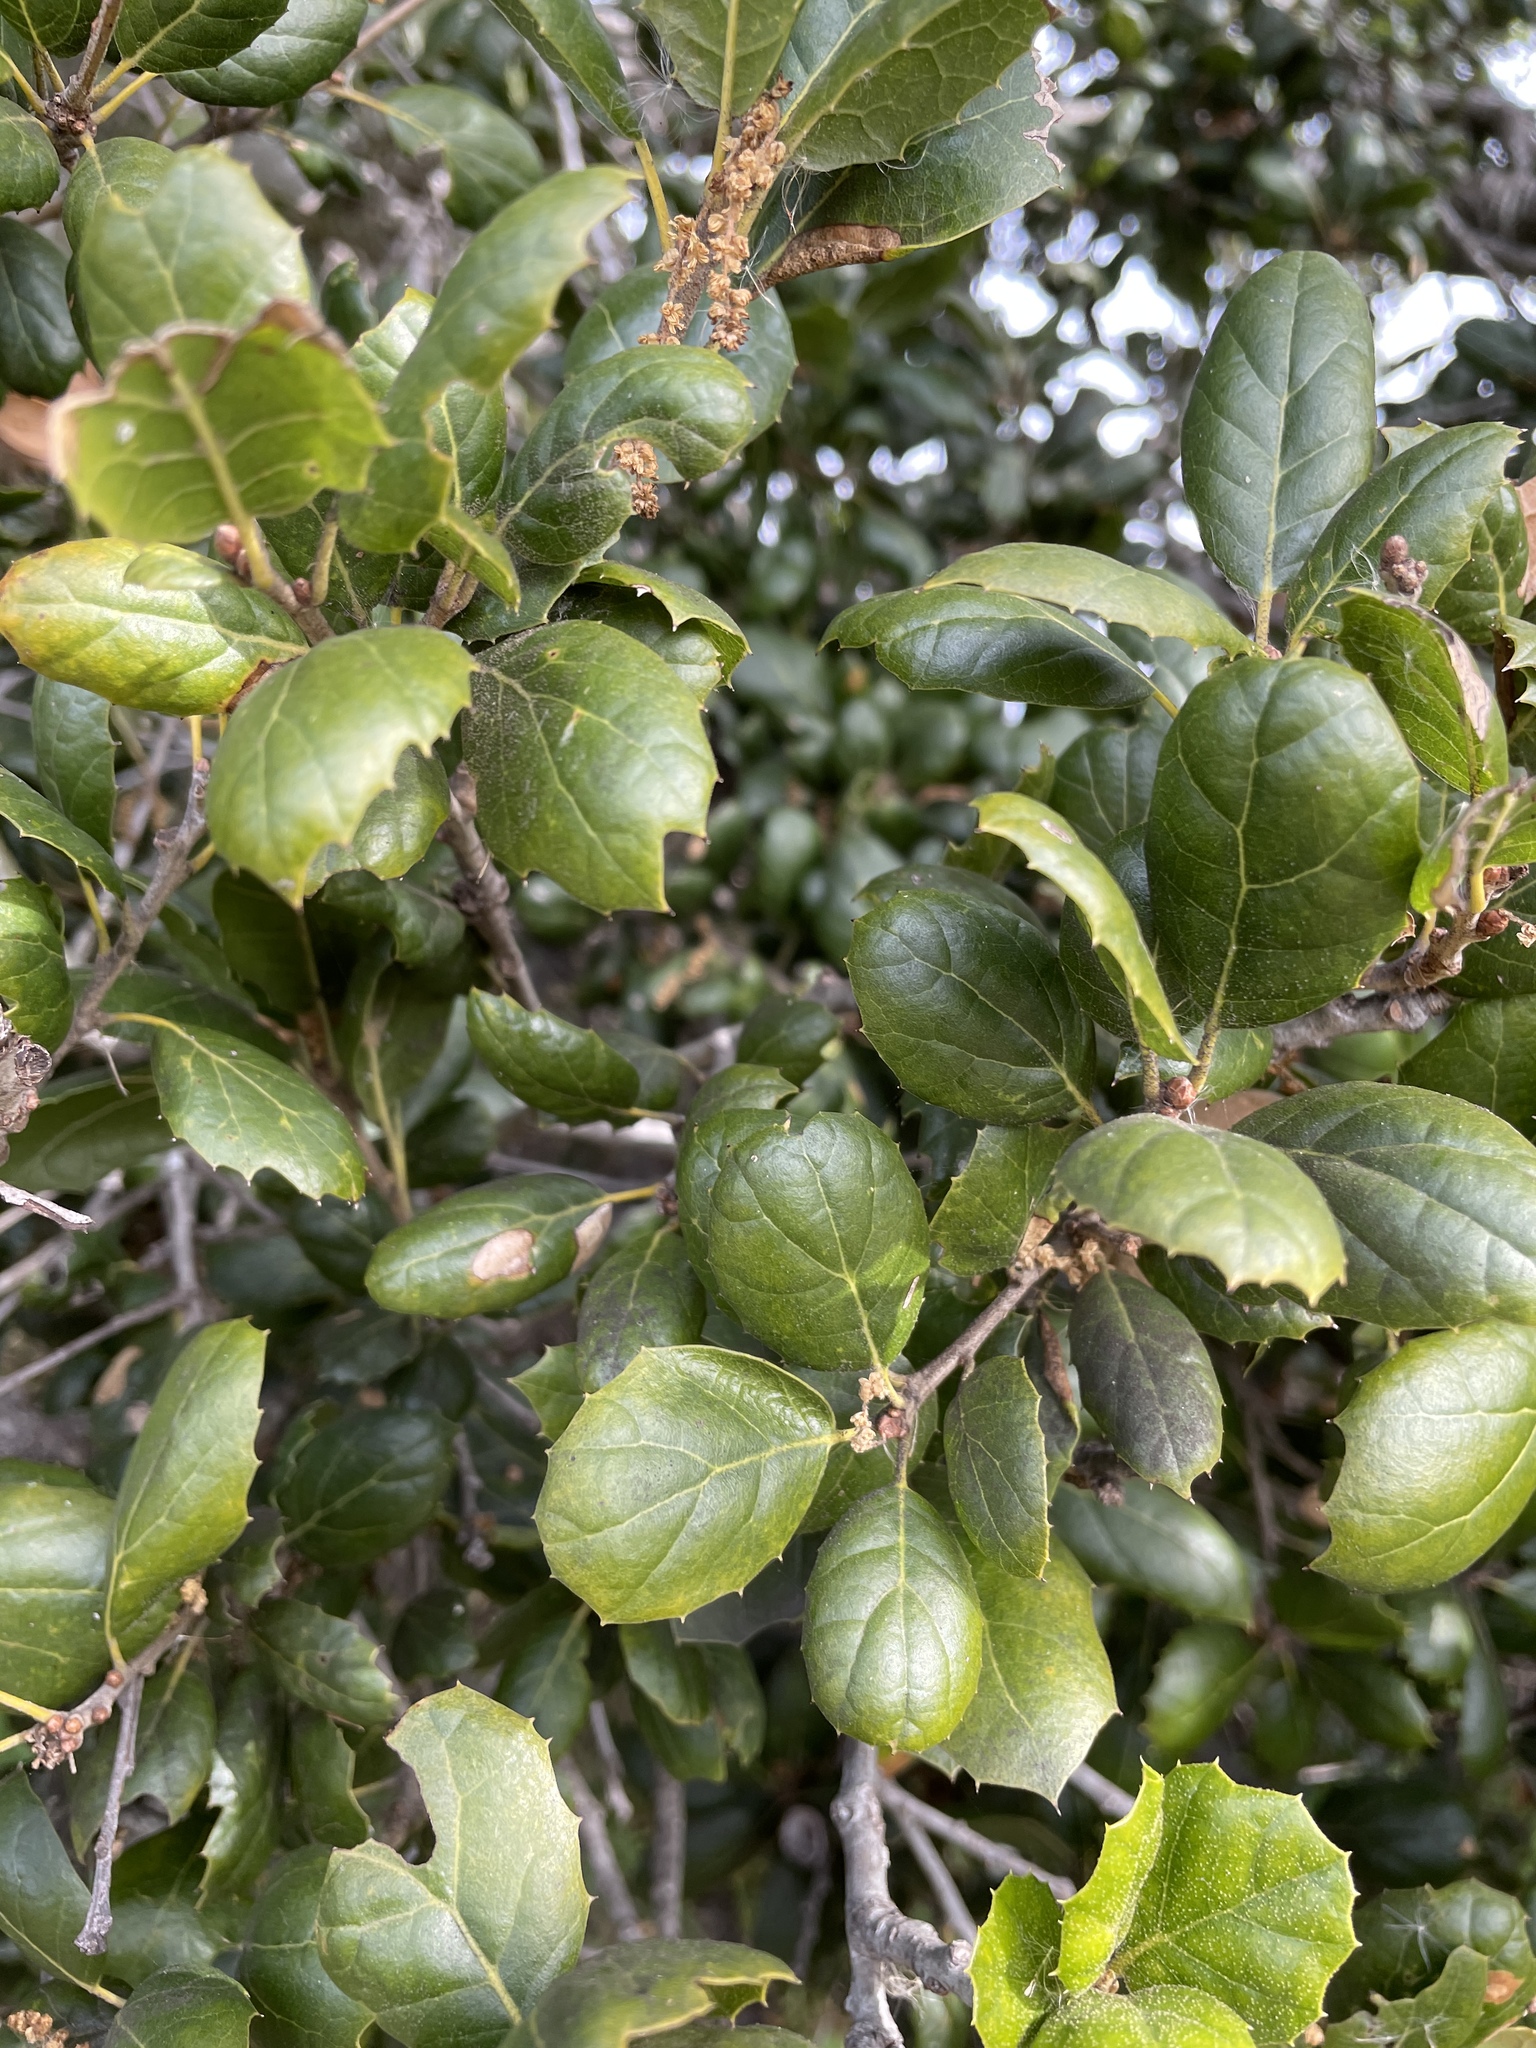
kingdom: Plantae
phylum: Tracheophyta
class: Magnoliopsida
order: Fagales
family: Fagaceae
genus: Quercus
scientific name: Quercus agrifolia
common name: California live oak
